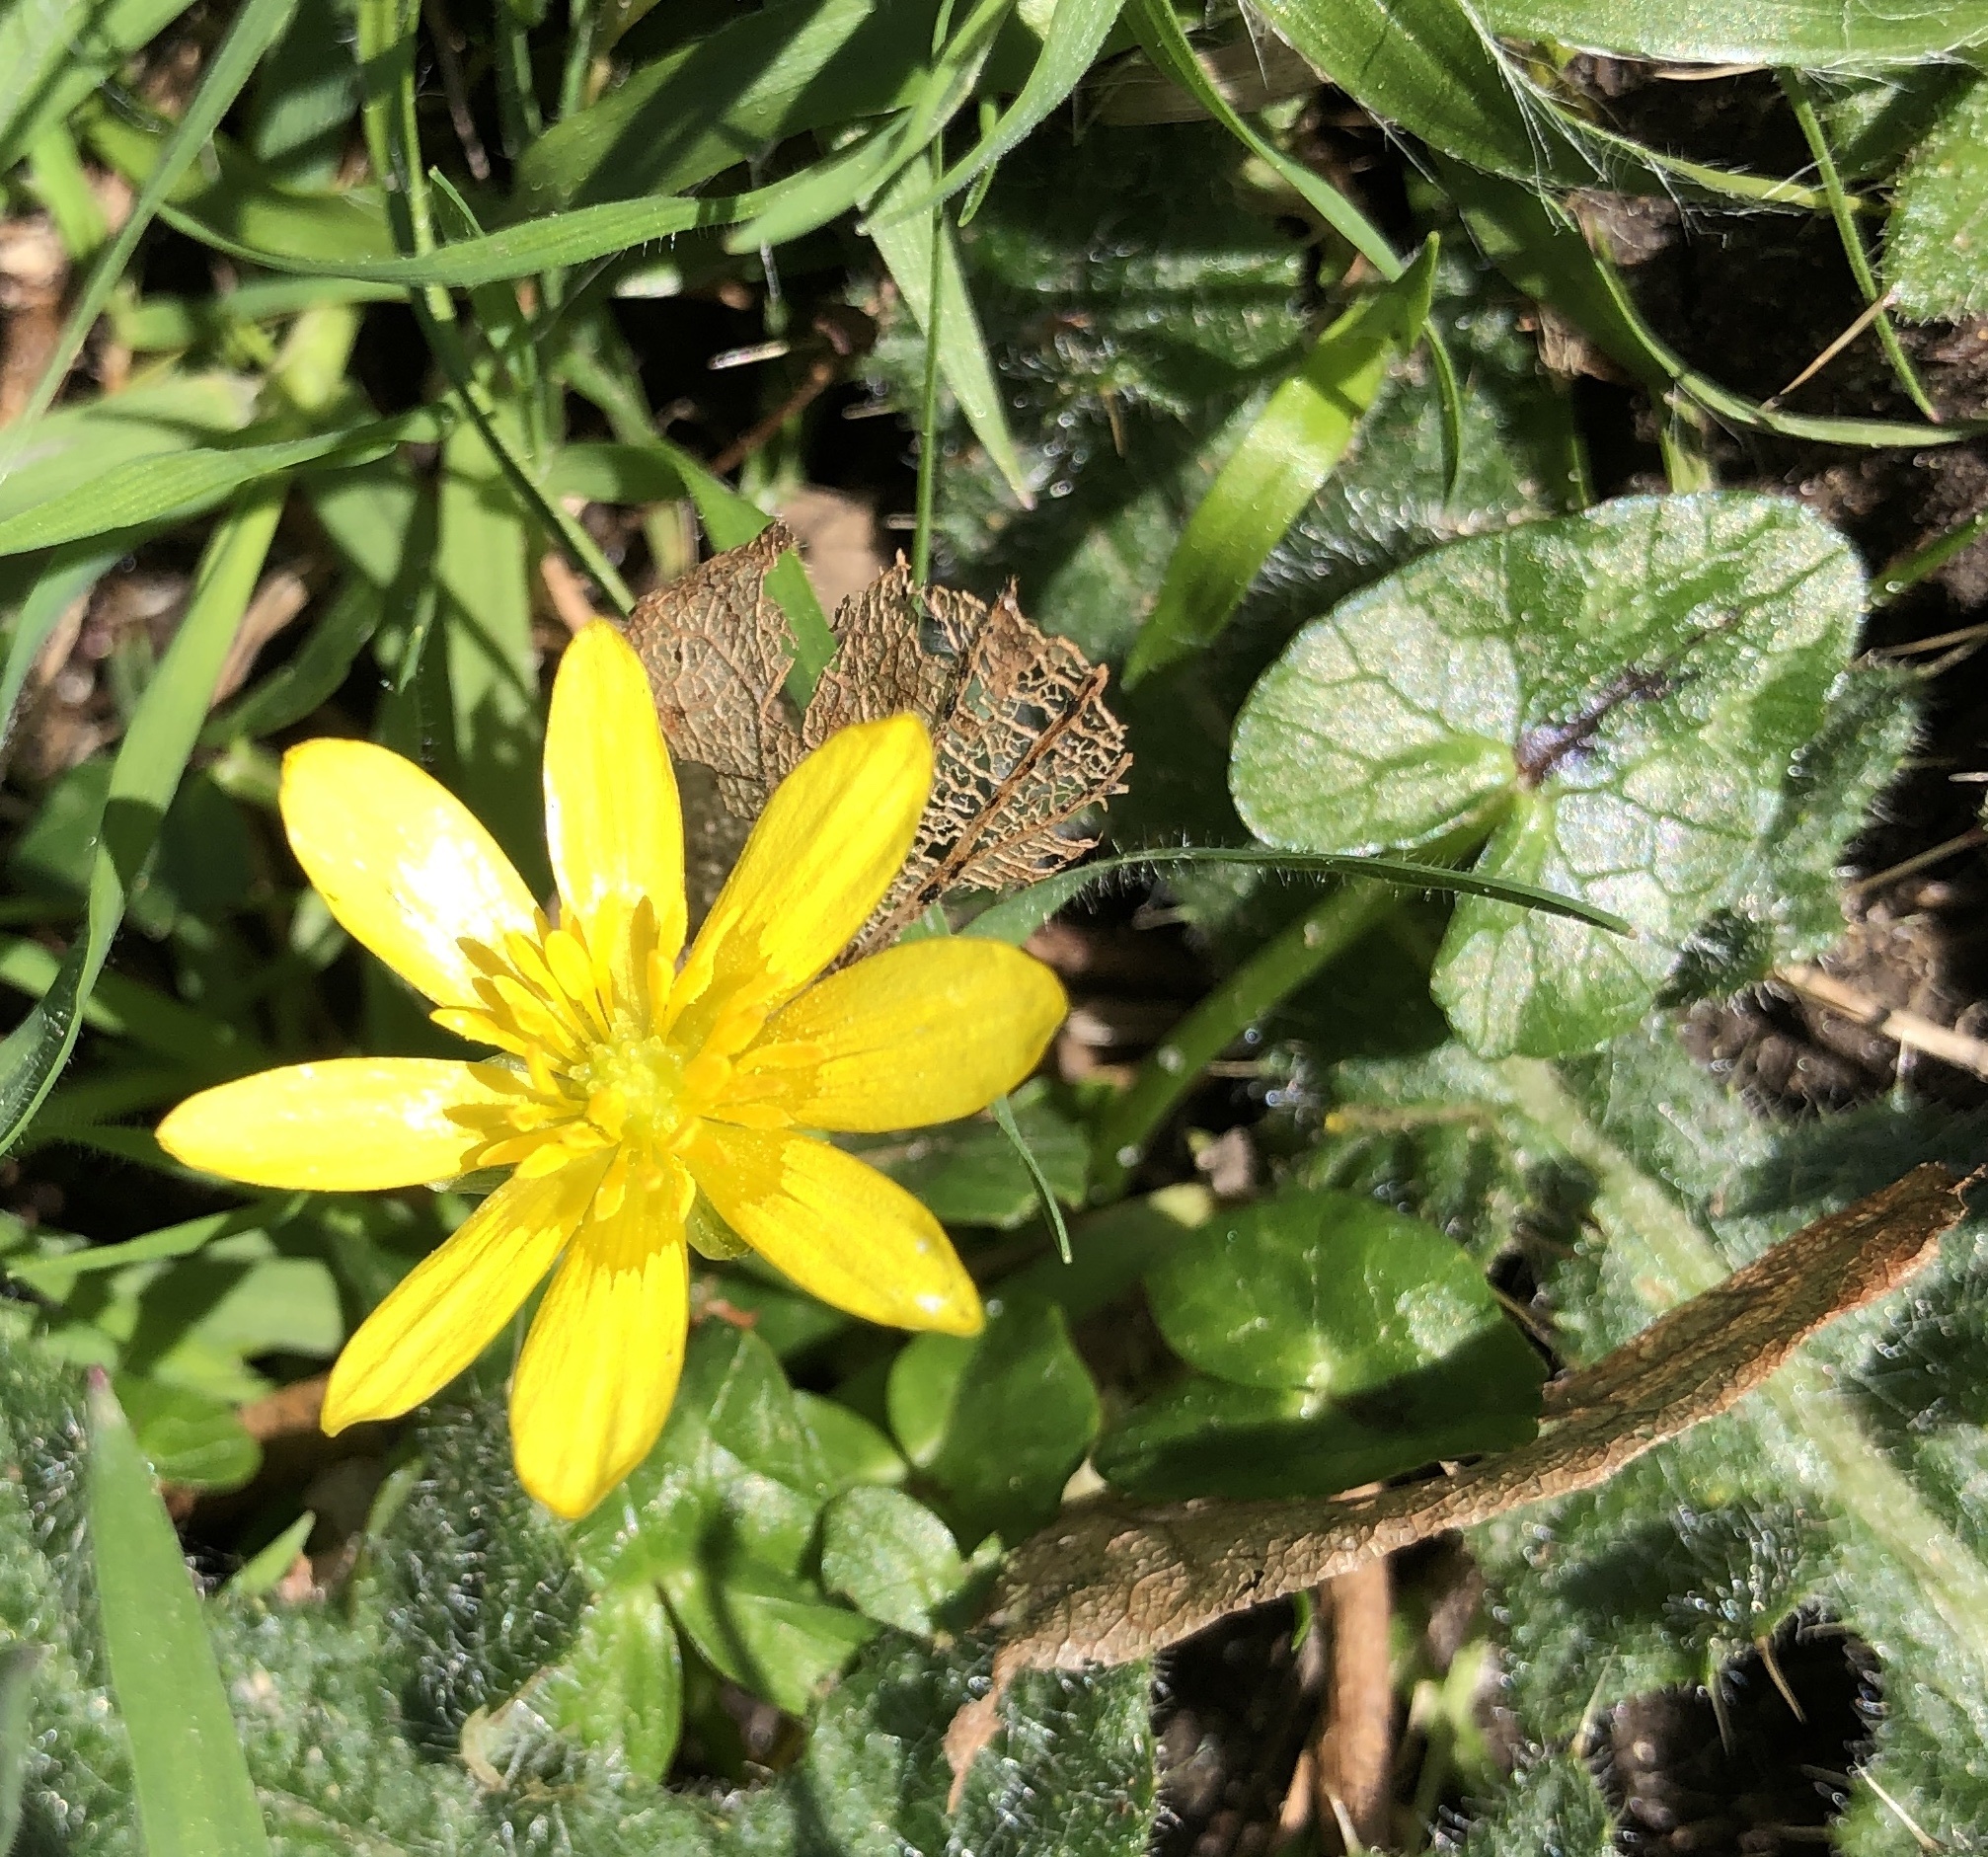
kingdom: Plantae
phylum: Tracheophyta
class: Magnoliopsida
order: Ranunculales
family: Ranunculaceae
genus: Ficaria
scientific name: Ficaria verna
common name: Lesser celandine
